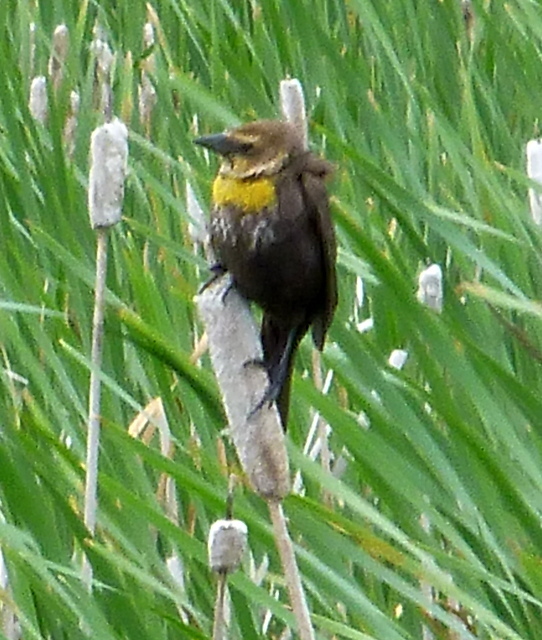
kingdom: Animalia
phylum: Chordata
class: Aves
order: Passeriformes
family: Icteridae
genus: Xanthocephalus
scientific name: Xanthocephalus xanthocephalus
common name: Yellow-headed blackbird
